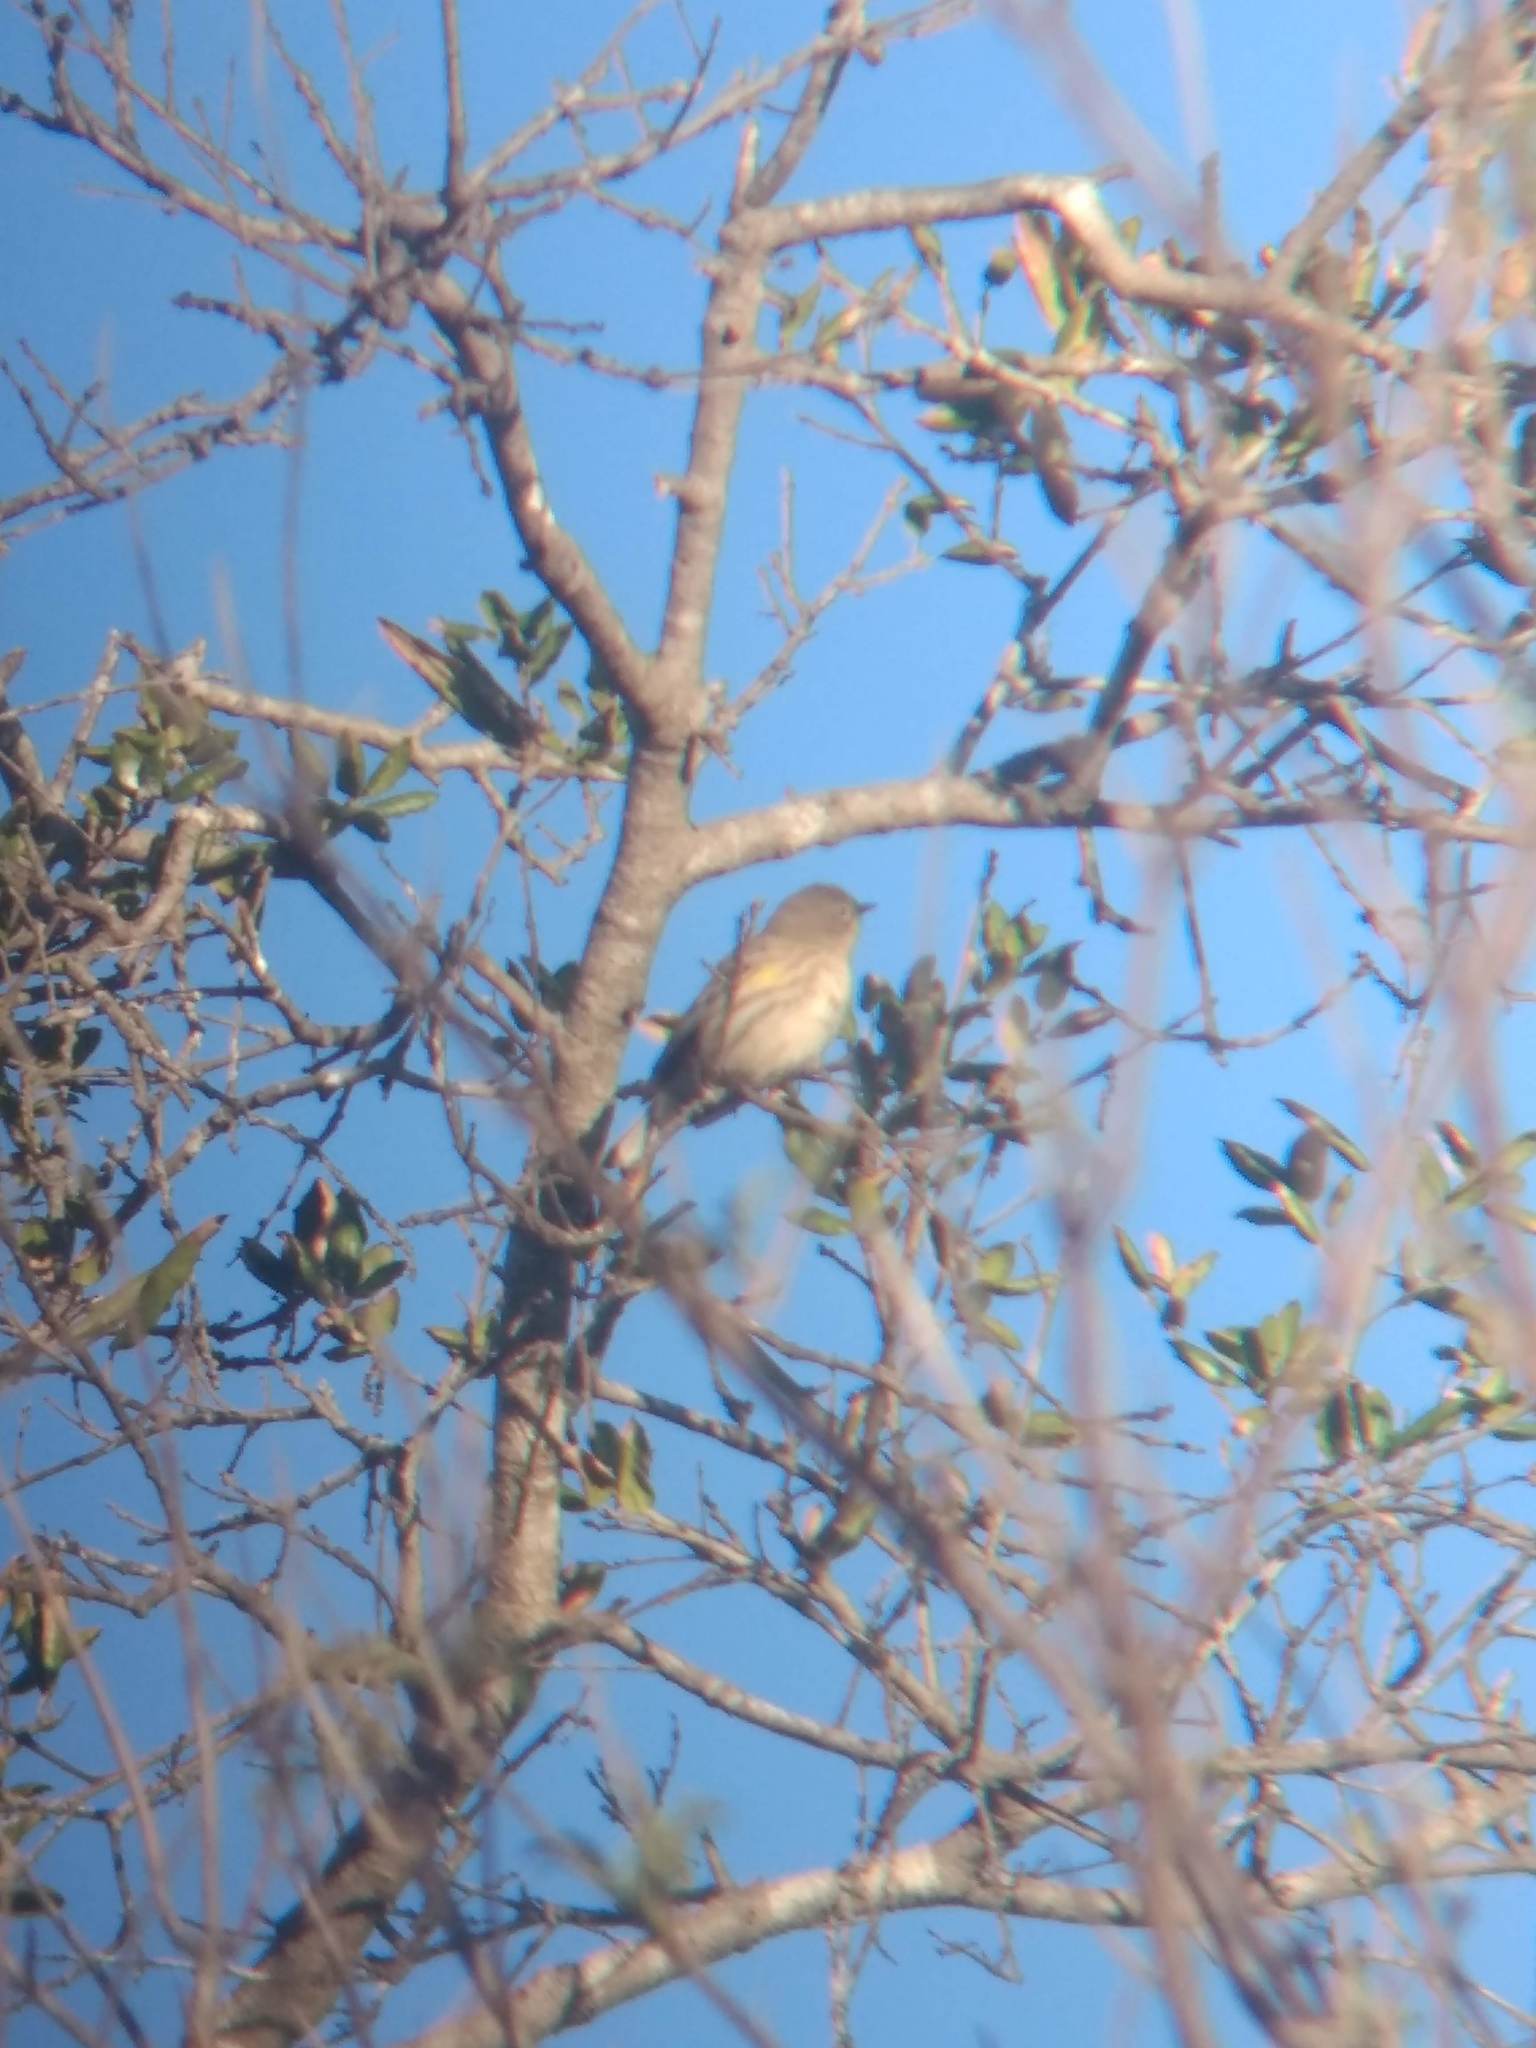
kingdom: Animalia
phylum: Chordata
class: Aves
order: Passeriformes
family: Parulidae
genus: Setophaga
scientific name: Setophaga coronata
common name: Myrtle warbler
